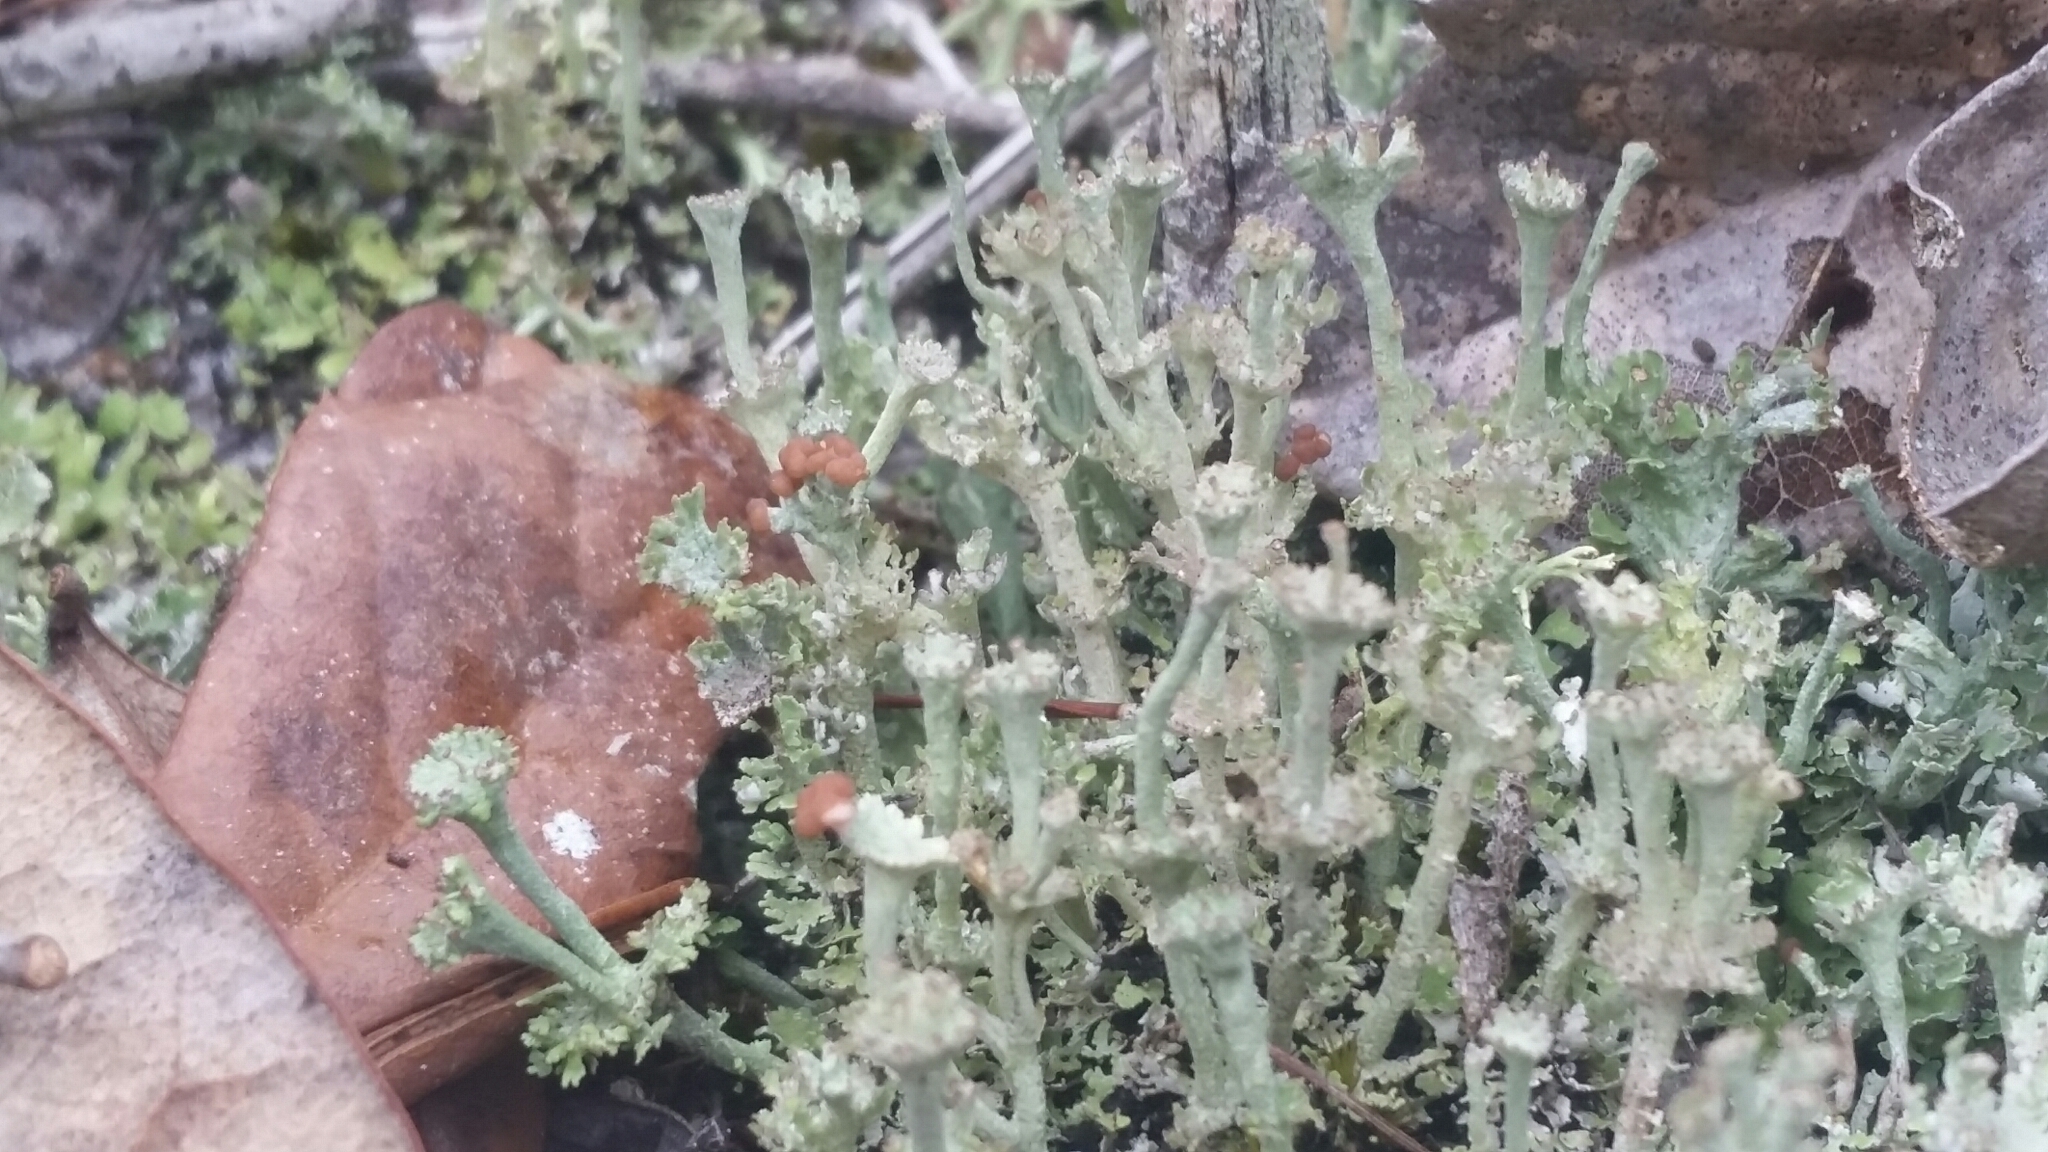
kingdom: Fungi
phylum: Ascomycota
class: Lecanoromycetes
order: Lecanorales
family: Cladoniaceae
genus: Cladonia
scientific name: Cladonia rappii
